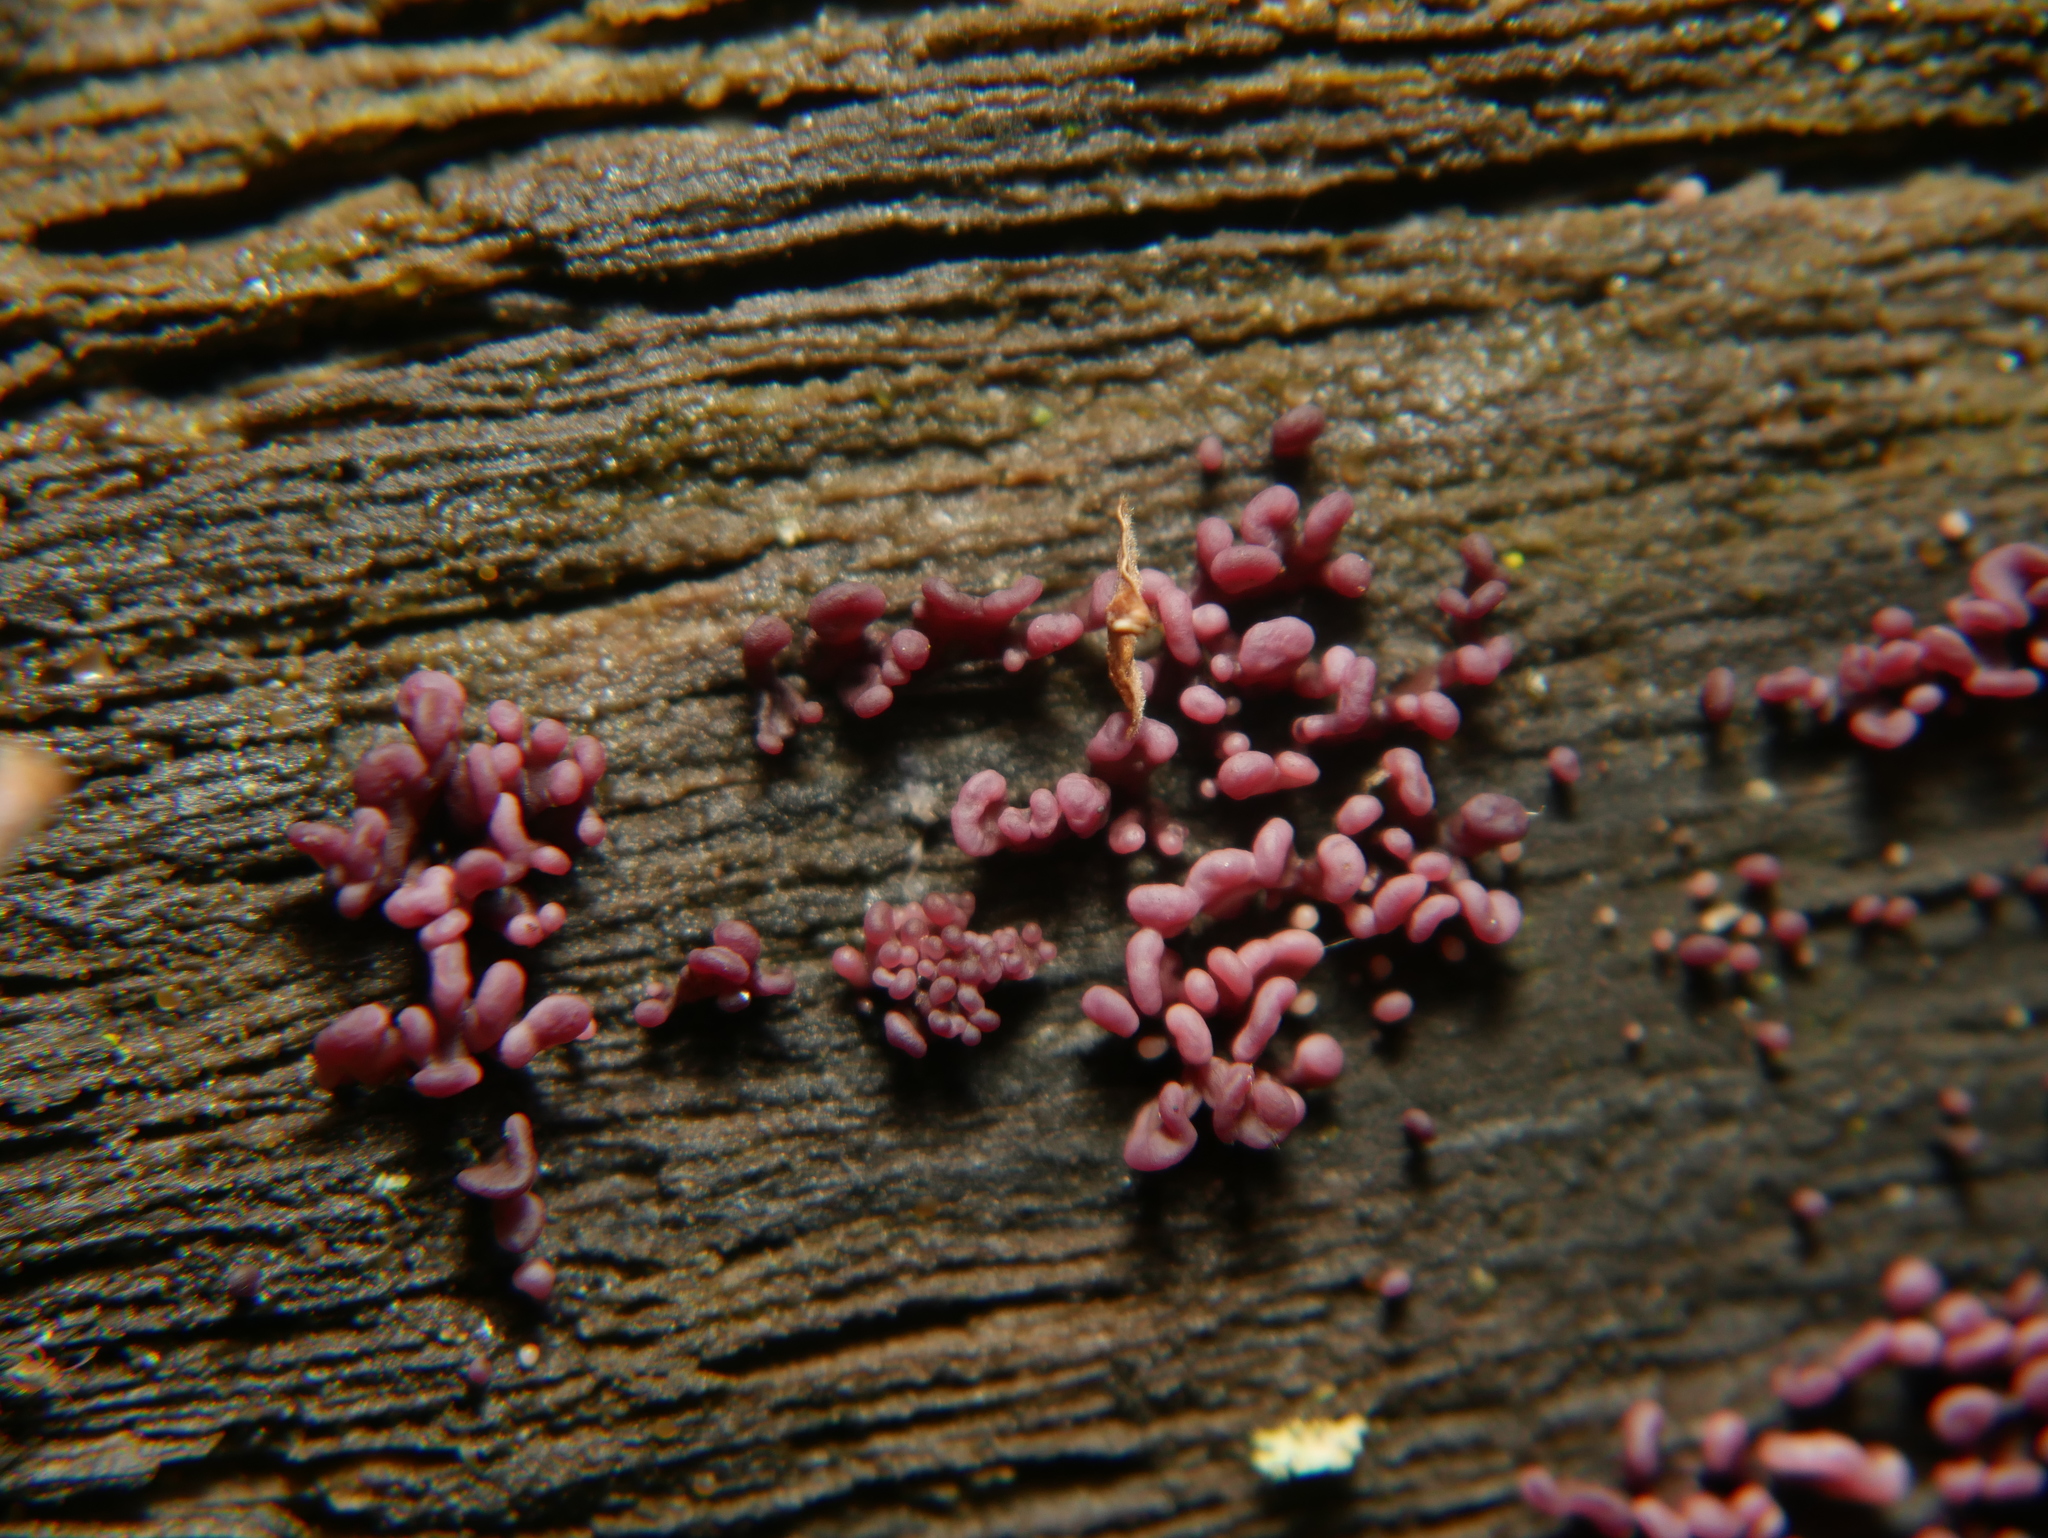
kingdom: Fungi
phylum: Ascomycota
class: Leotiomycetes
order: Helotiales
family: Gelatinodiscaceae
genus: Ascocoryne
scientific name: Ascocoryne sarcoides
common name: Purple jellydisc
